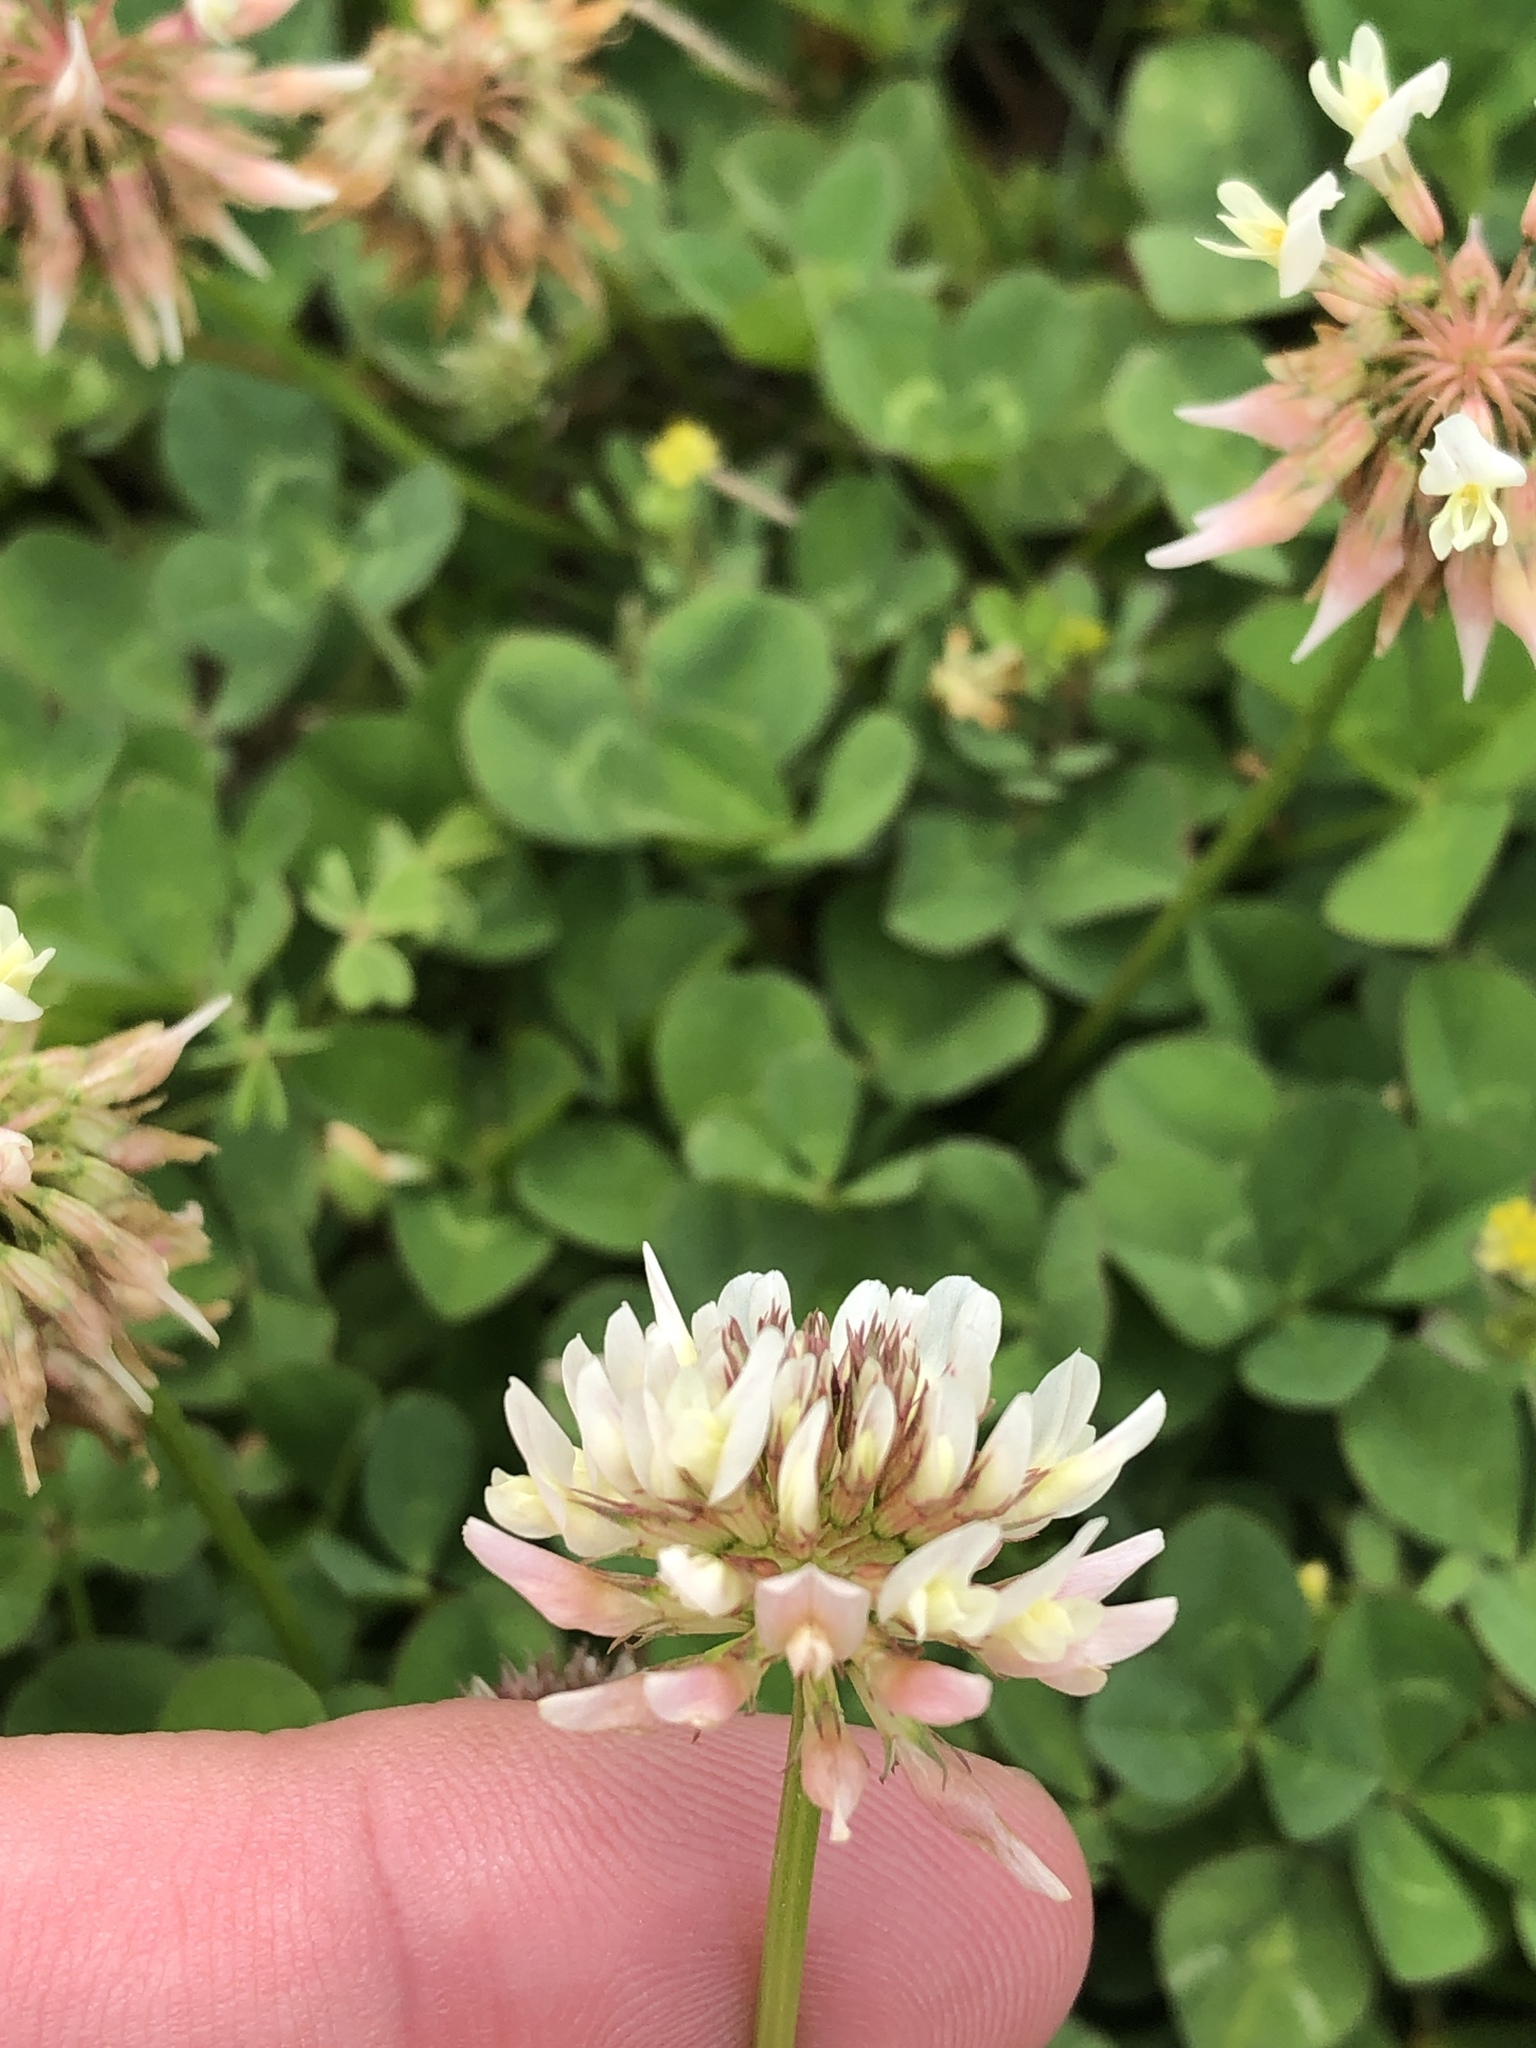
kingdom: Plantae
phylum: Tracheophyta
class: Magnoliopsida
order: Fabales
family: Fabaceae
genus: Trifolium
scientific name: Trifolium repens
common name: White clover
